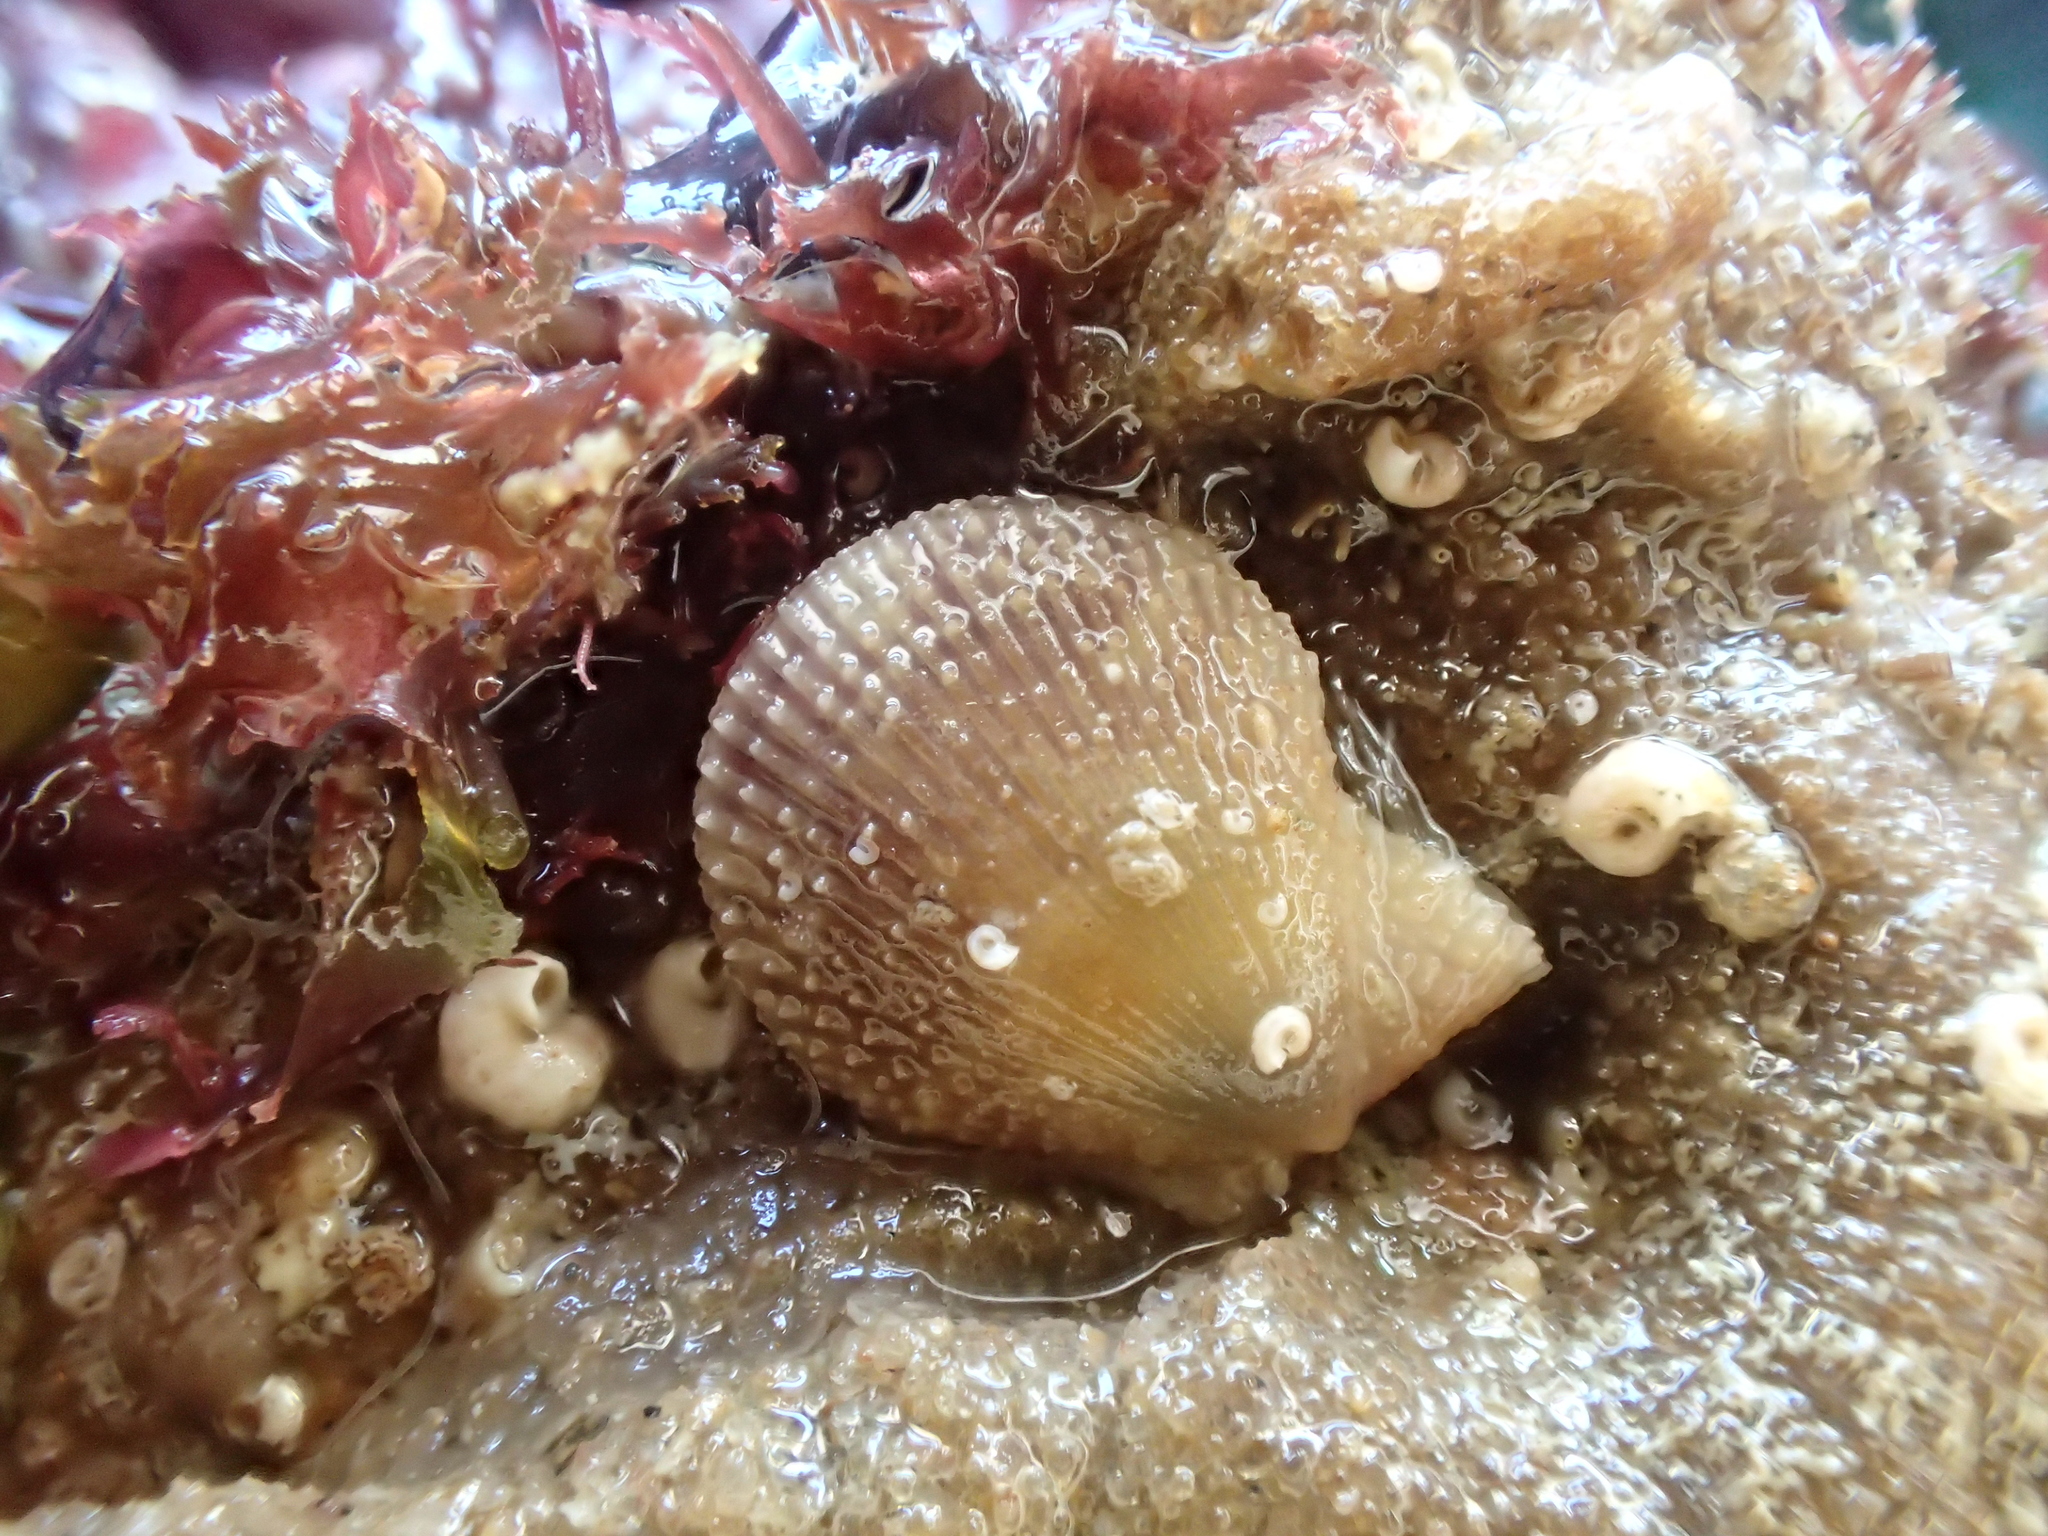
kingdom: Animalia
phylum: Mollusca
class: Bivalvia
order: Pectinida
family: Pectinidae
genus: Mimachlamys
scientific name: Mimachlamys varia
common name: Variegated scallop
